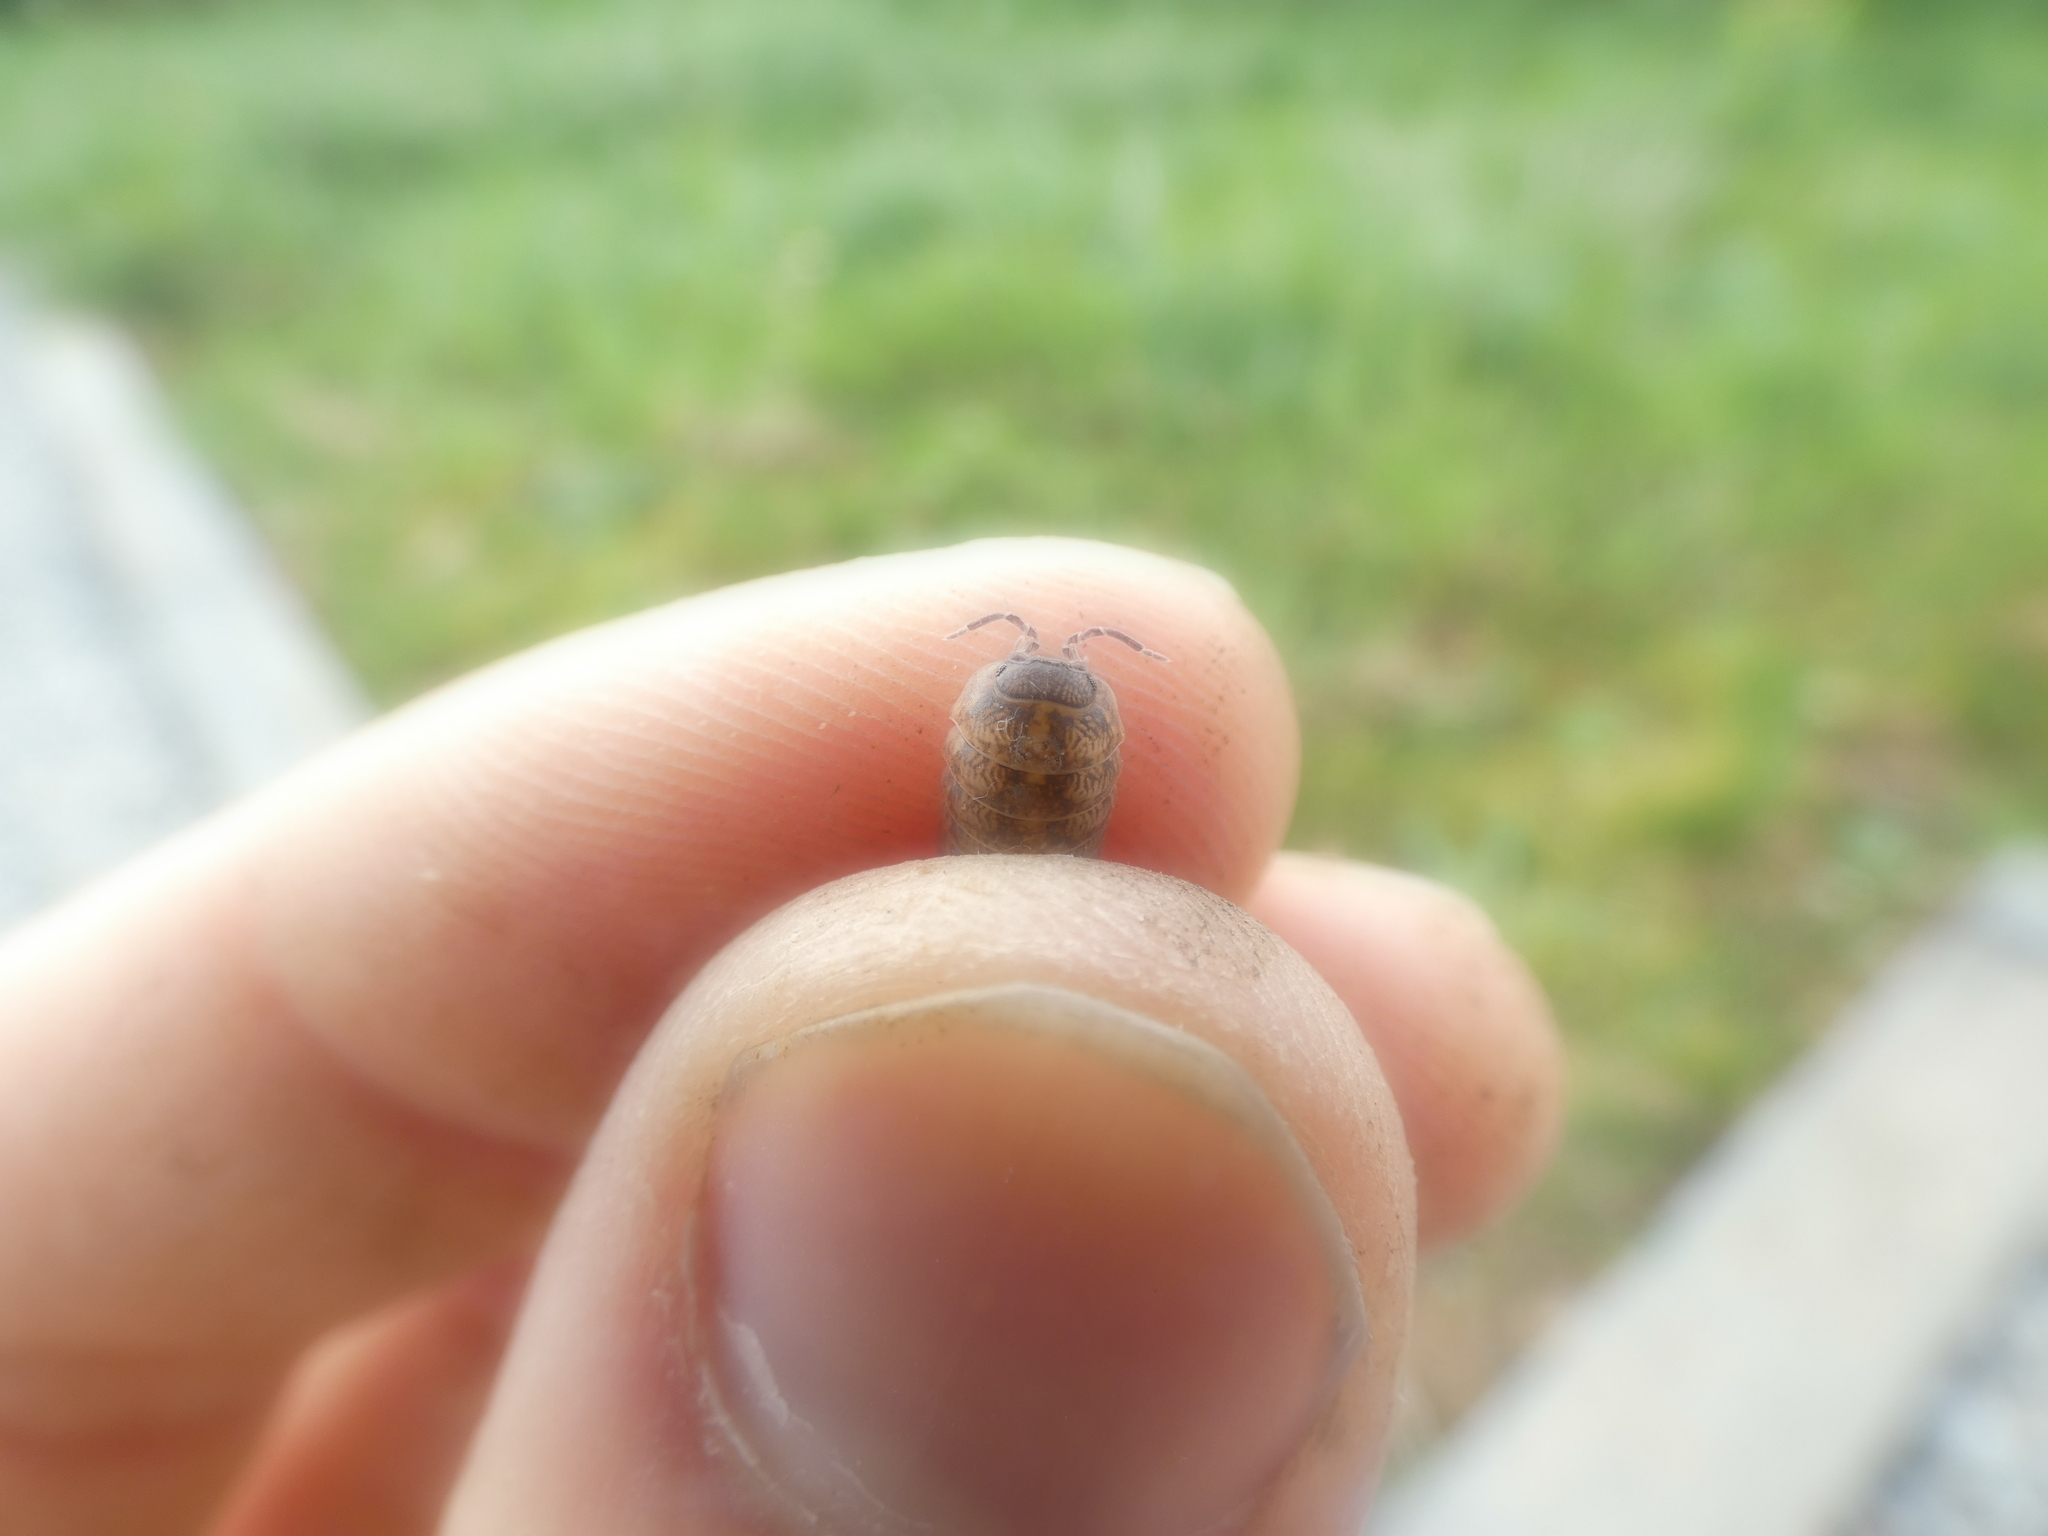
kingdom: Animalia
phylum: Arthropoda
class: Malacostraca
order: Isopoda
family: Armadillidiidae
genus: Armadillidium
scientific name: Armadillidium vulgare
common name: Common pill woodlouse
